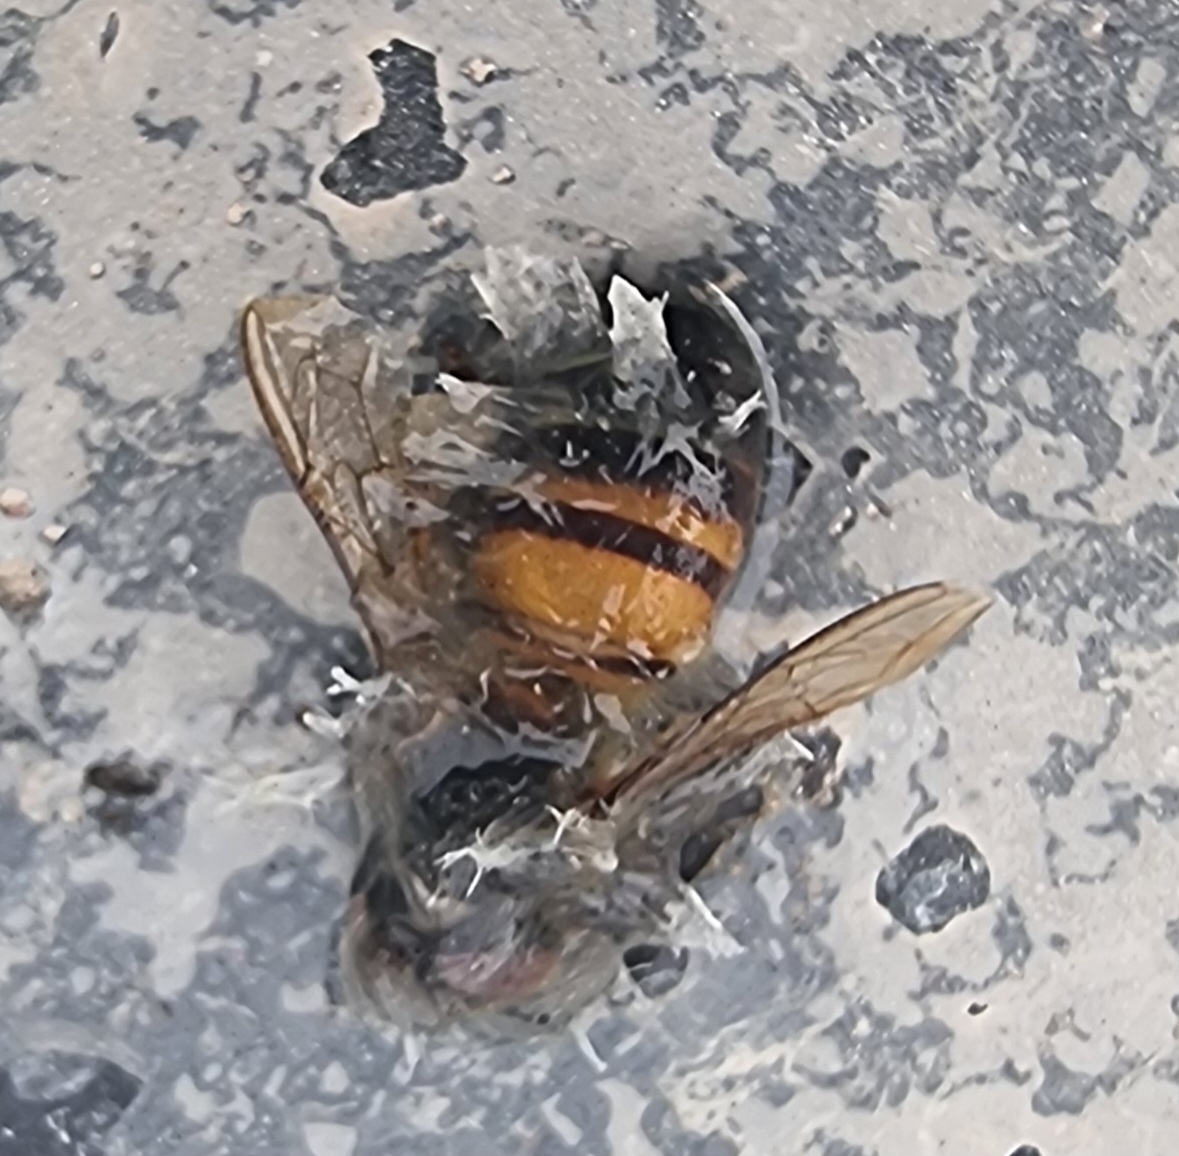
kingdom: Animalia
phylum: Arthropoda
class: Insecta
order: Hymenoptera
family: Apidae
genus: Apis
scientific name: Apis mellifera
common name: Honey bee
